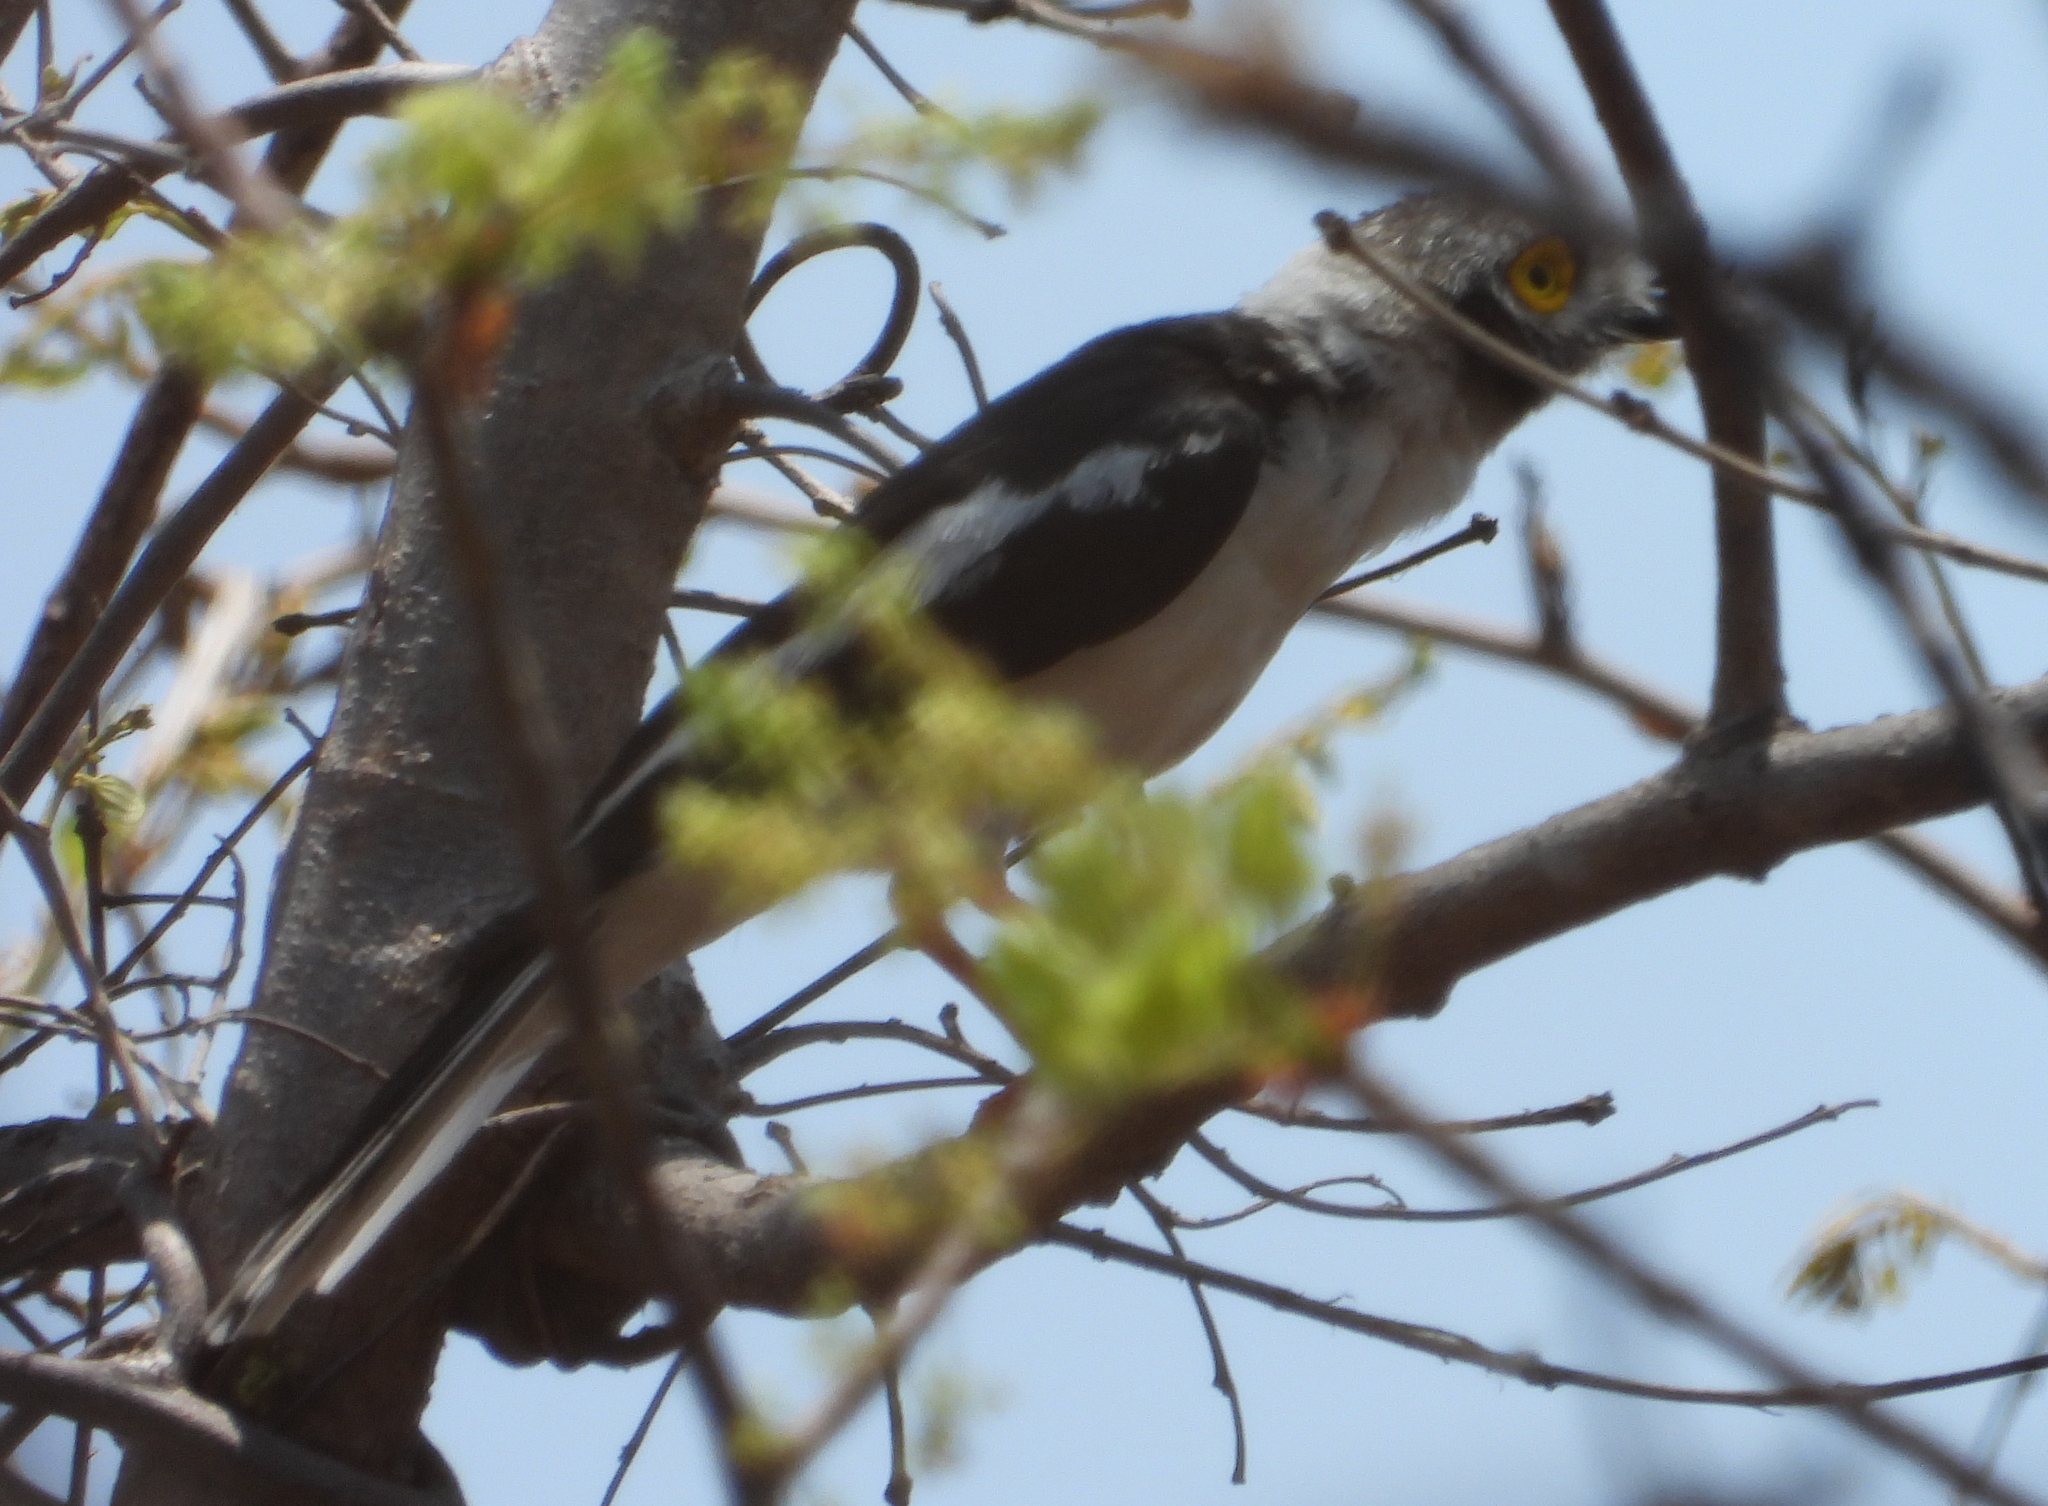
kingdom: Animalia
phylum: Chordata
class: Aves
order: Passeriformes
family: Prionopidae
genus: Prionops
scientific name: Prionops plumatus
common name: White-crested helmetshrike
